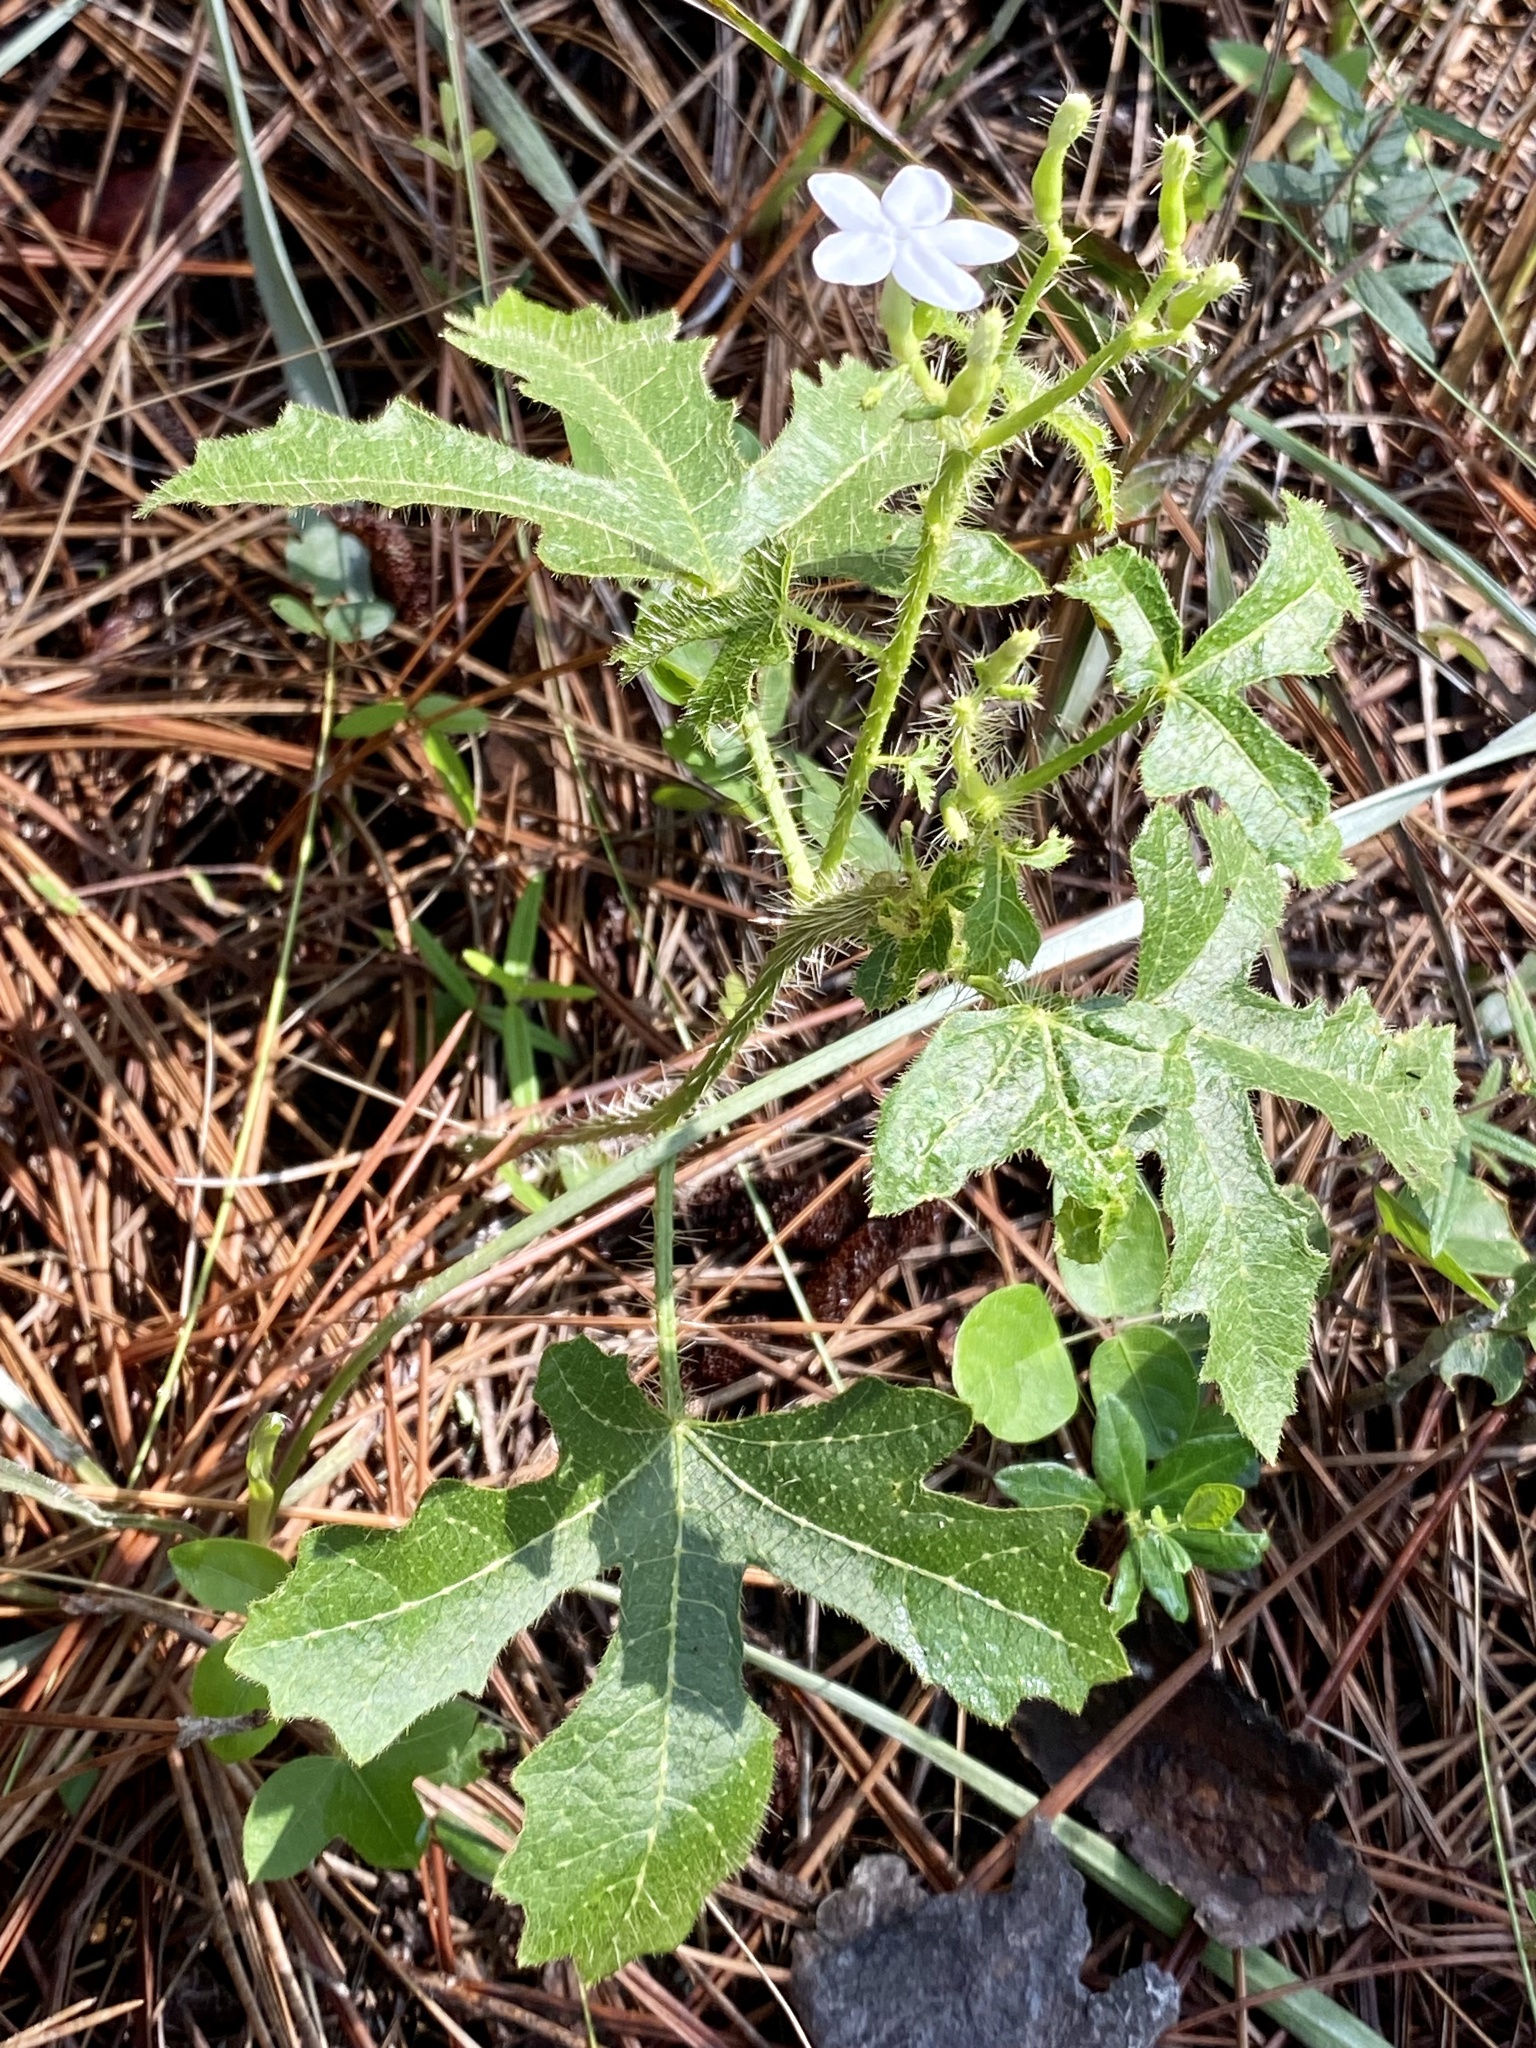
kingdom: Plantae
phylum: Tracheophyta
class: Magnoliopsida
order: Malpighiales
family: Euphorbiaceae
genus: Cnidoscolus
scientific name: Cnidoscolus stimulosus
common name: Bull-nettle
